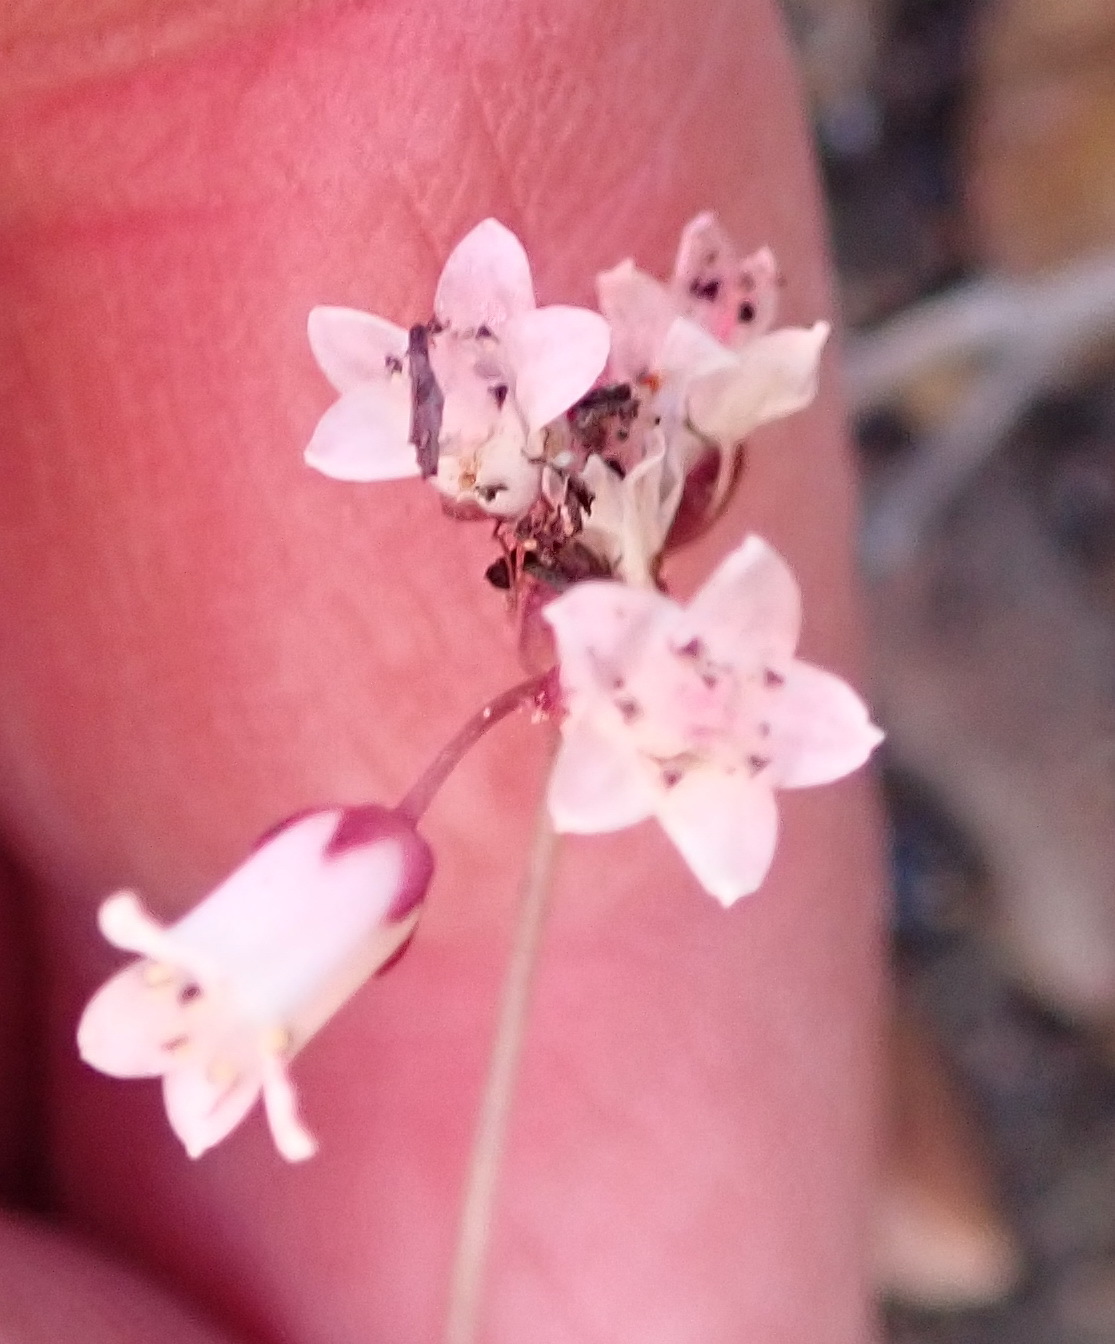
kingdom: Plantae
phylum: Tracheophyta
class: Magnoliopsida
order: Saxifragales
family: Crassulaceae
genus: Crassula
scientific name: Crassula saxifraga
